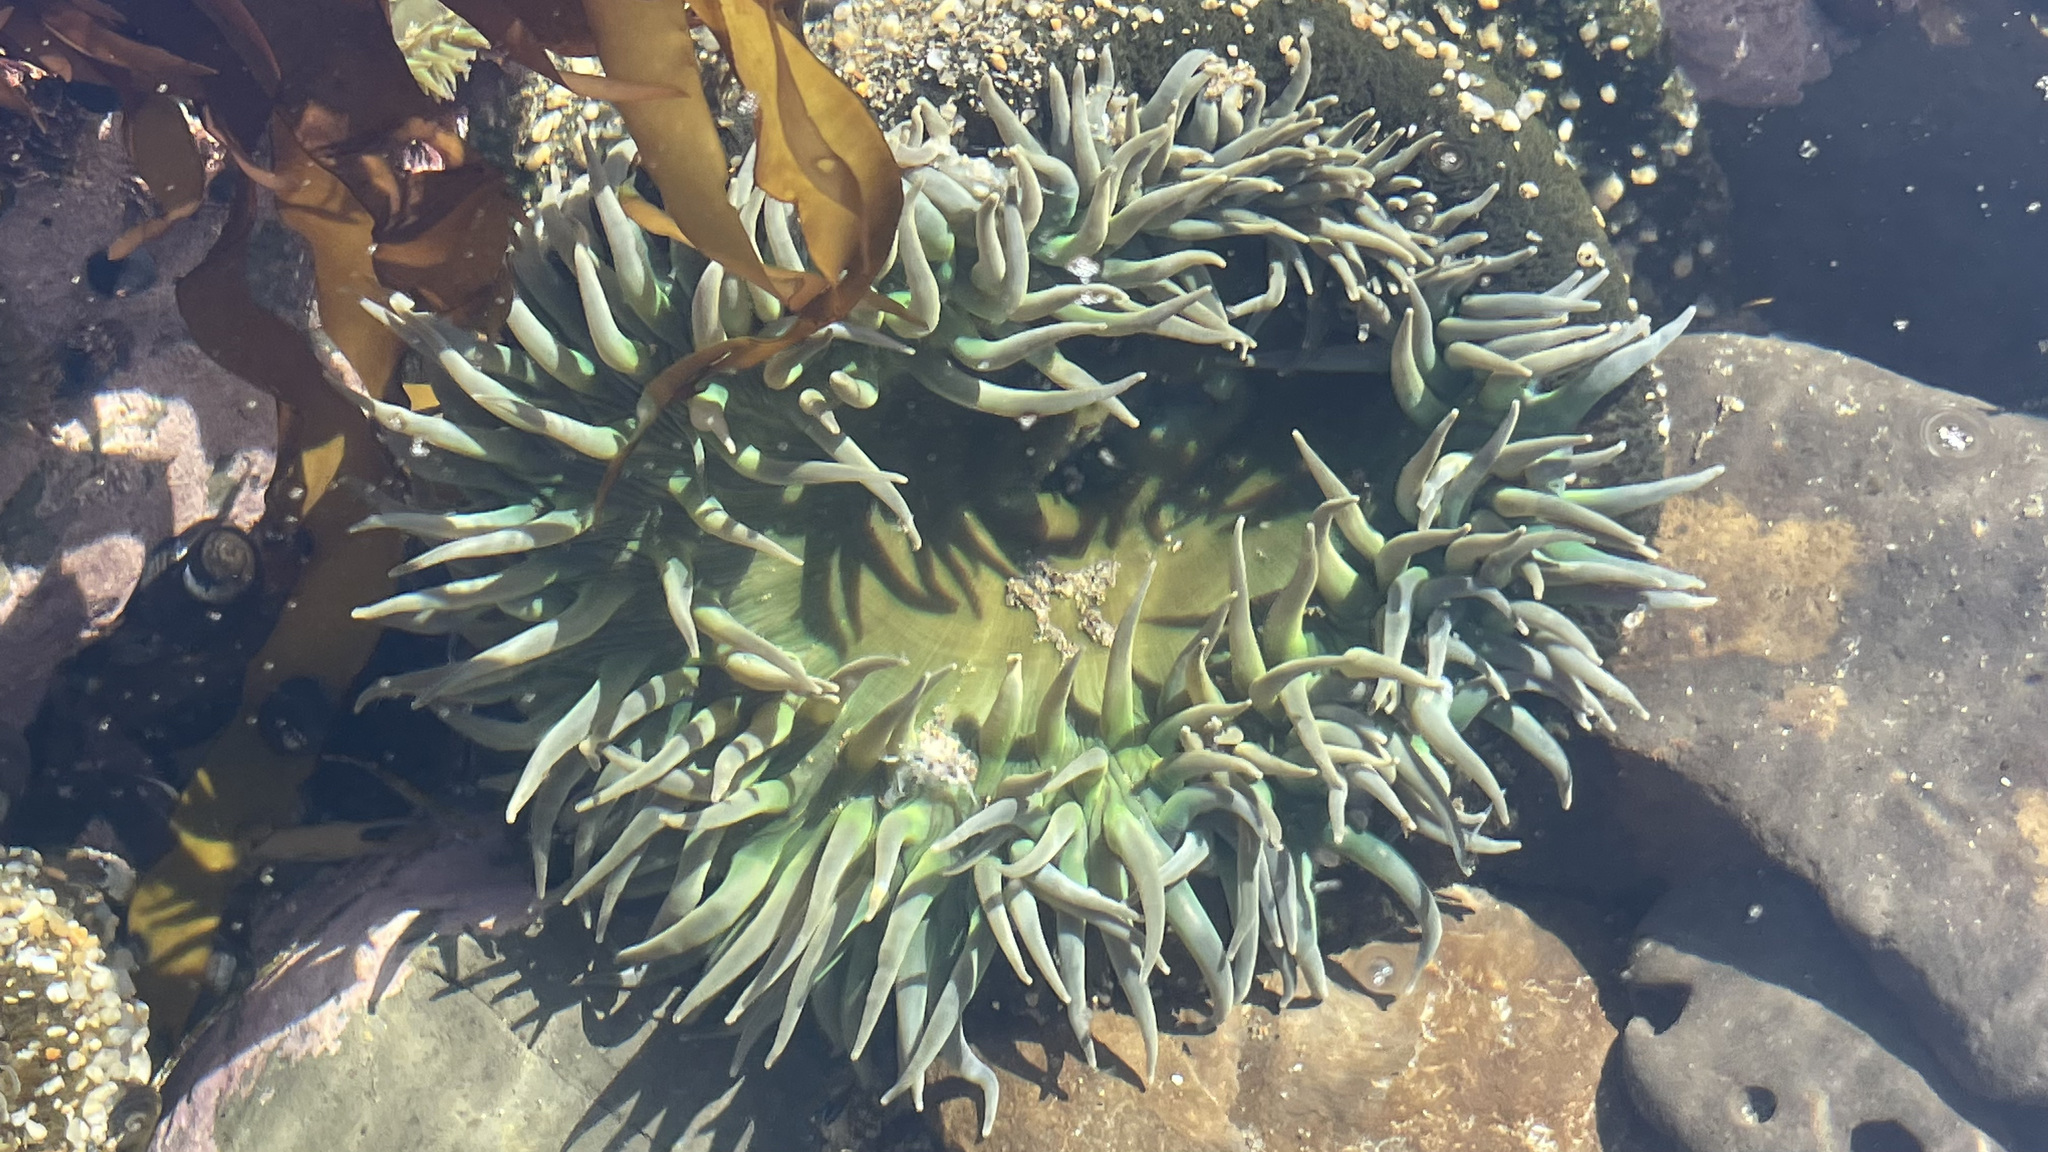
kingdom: Animalia
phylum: Cnidaria
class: Anthozoa
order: Actiniaria
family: Actiniidae
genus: Anthopleura
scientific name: Anthopleura xanthogrammica
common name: Giant green anemone
